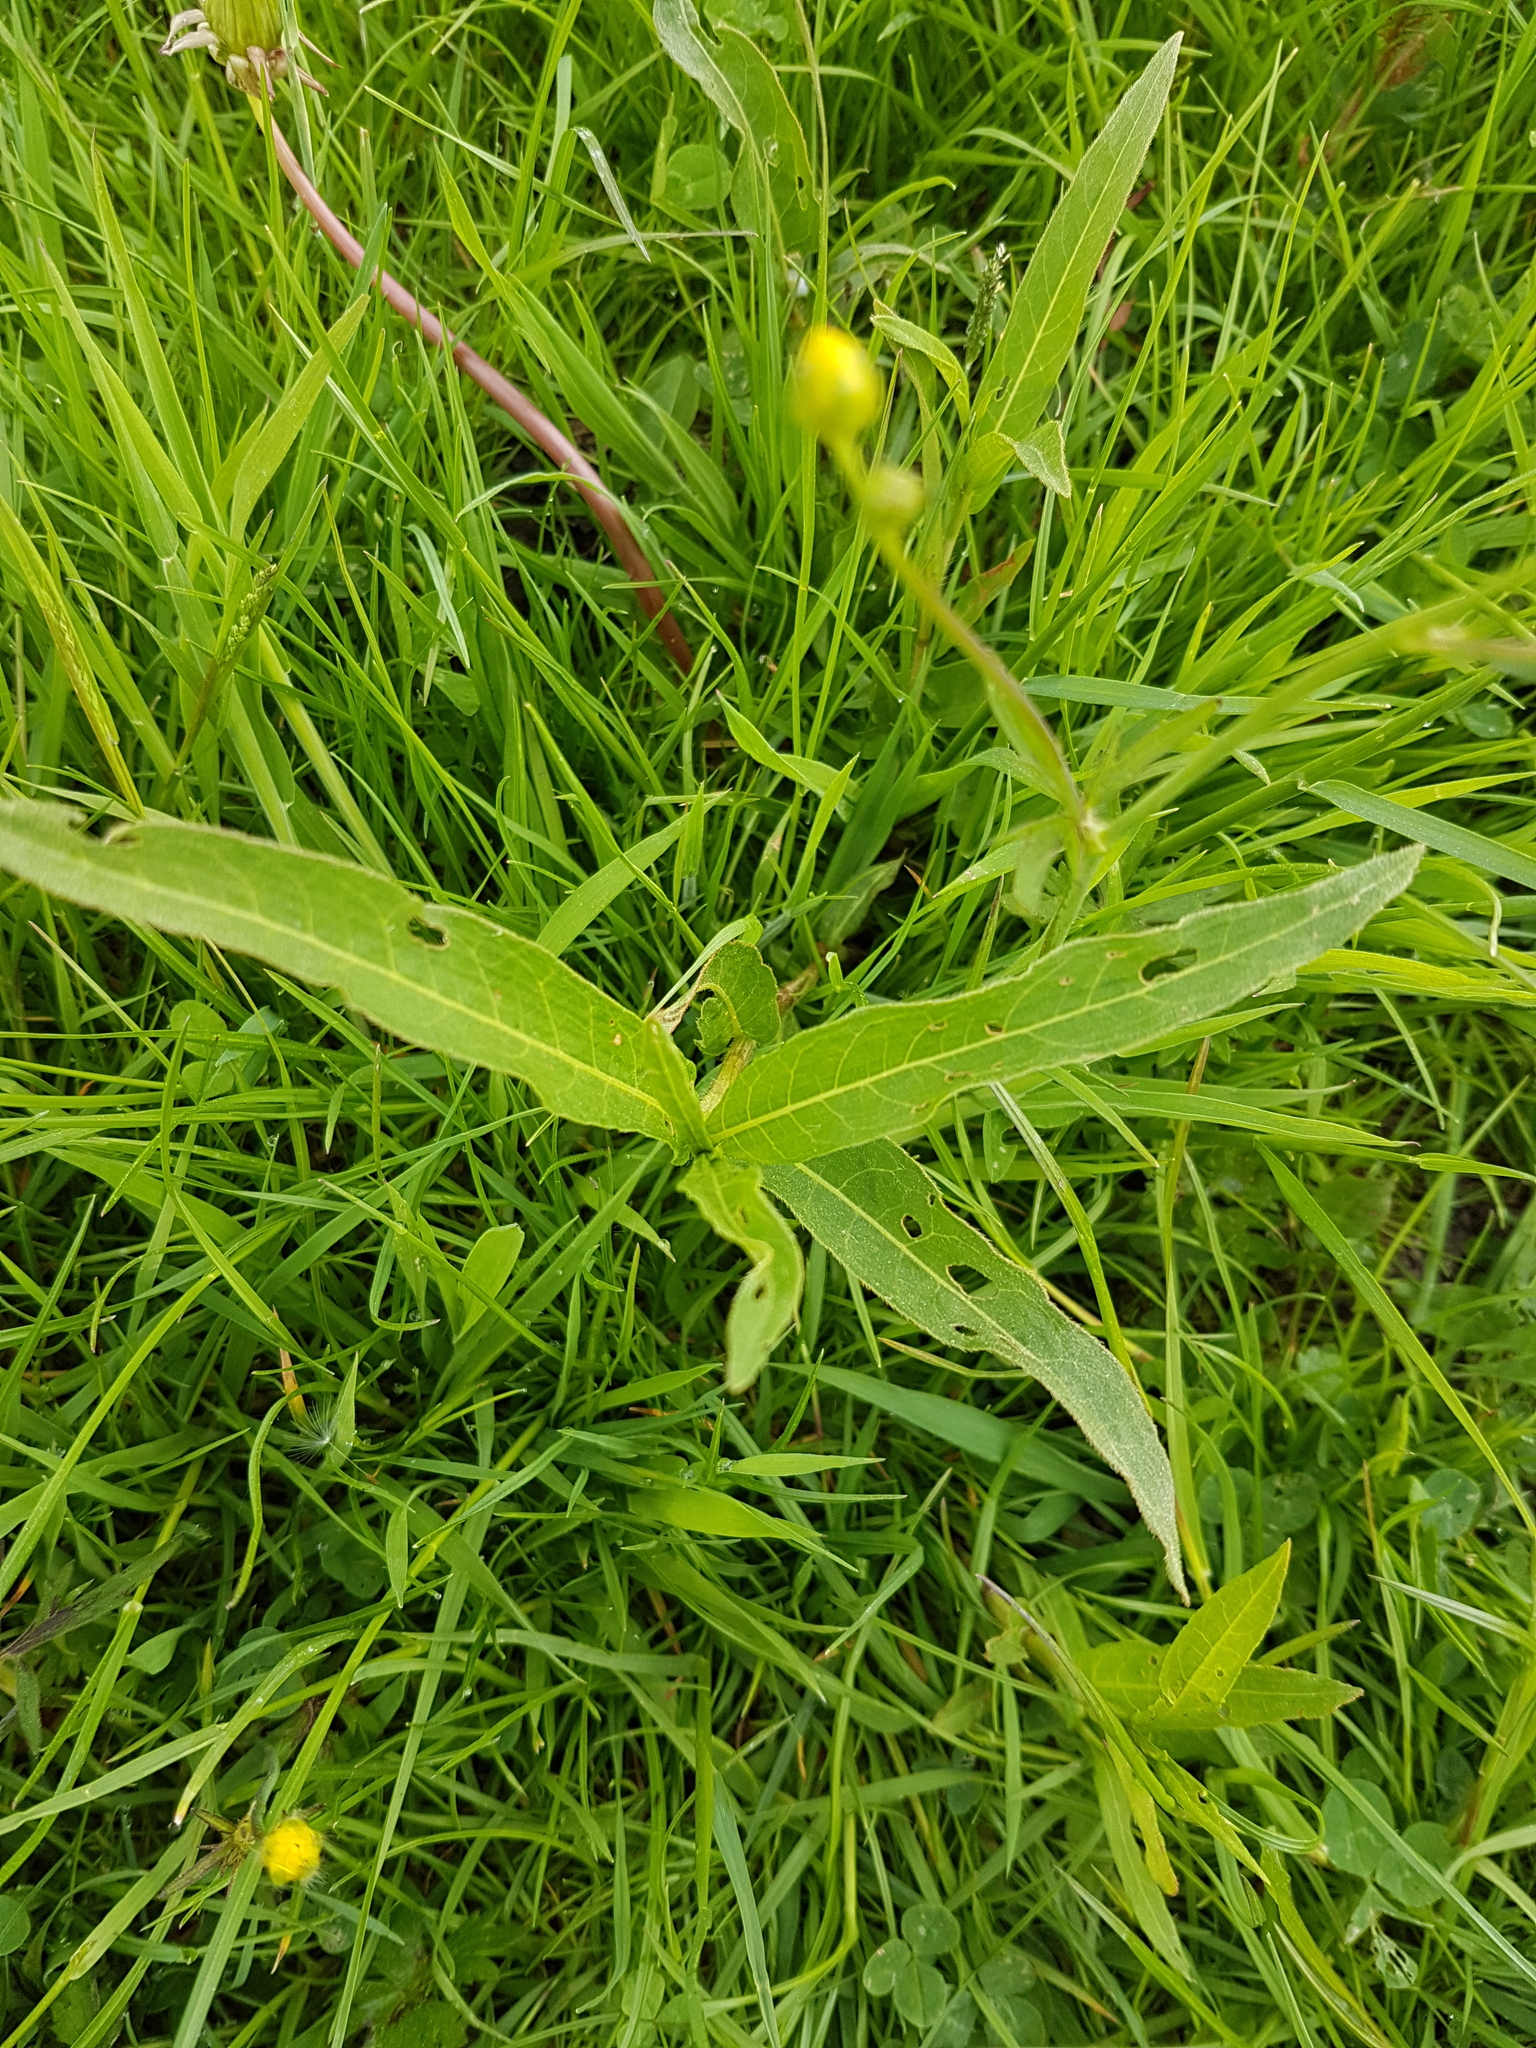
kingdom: Plantae
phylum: Tracheophyta
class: Magnoliopsida
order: Caryophyllales
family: Polygonaceae
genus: Persicaria
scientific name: Persicaria amphibia
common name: Amphibious bistort
